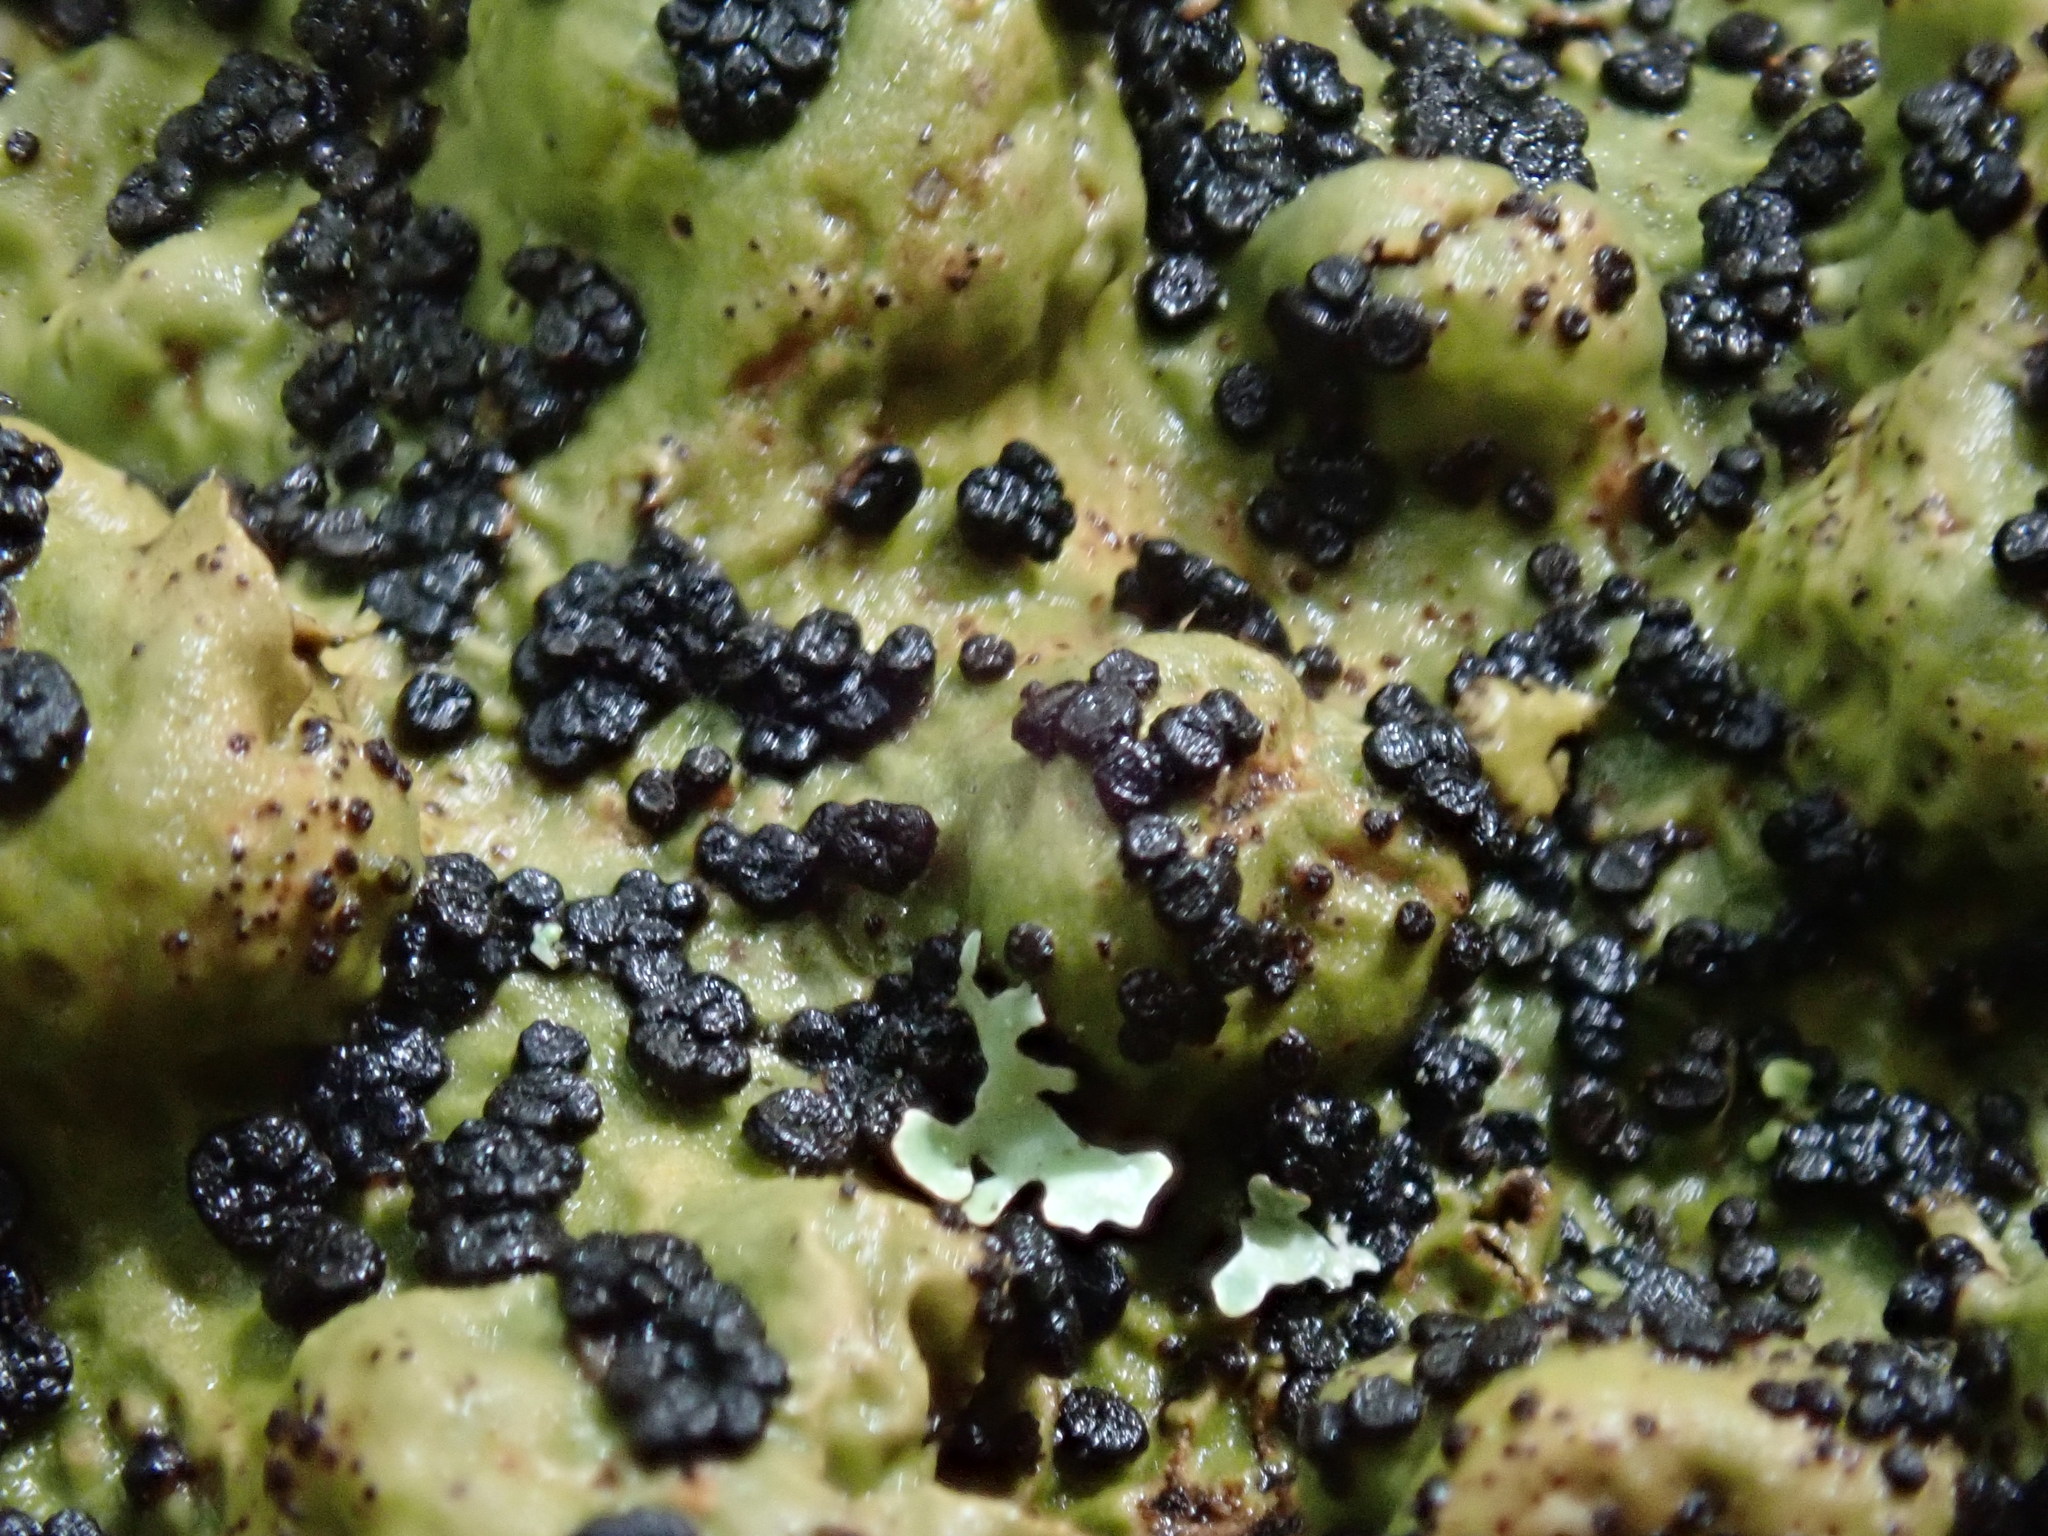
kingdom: Fungi
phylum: Ascomycota
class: Lecanoromycetes
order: Umbilicariales
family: Umbilicariaceae
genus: Lasallia
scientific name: Lasallia papulosa
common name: Common toadskin lichen
